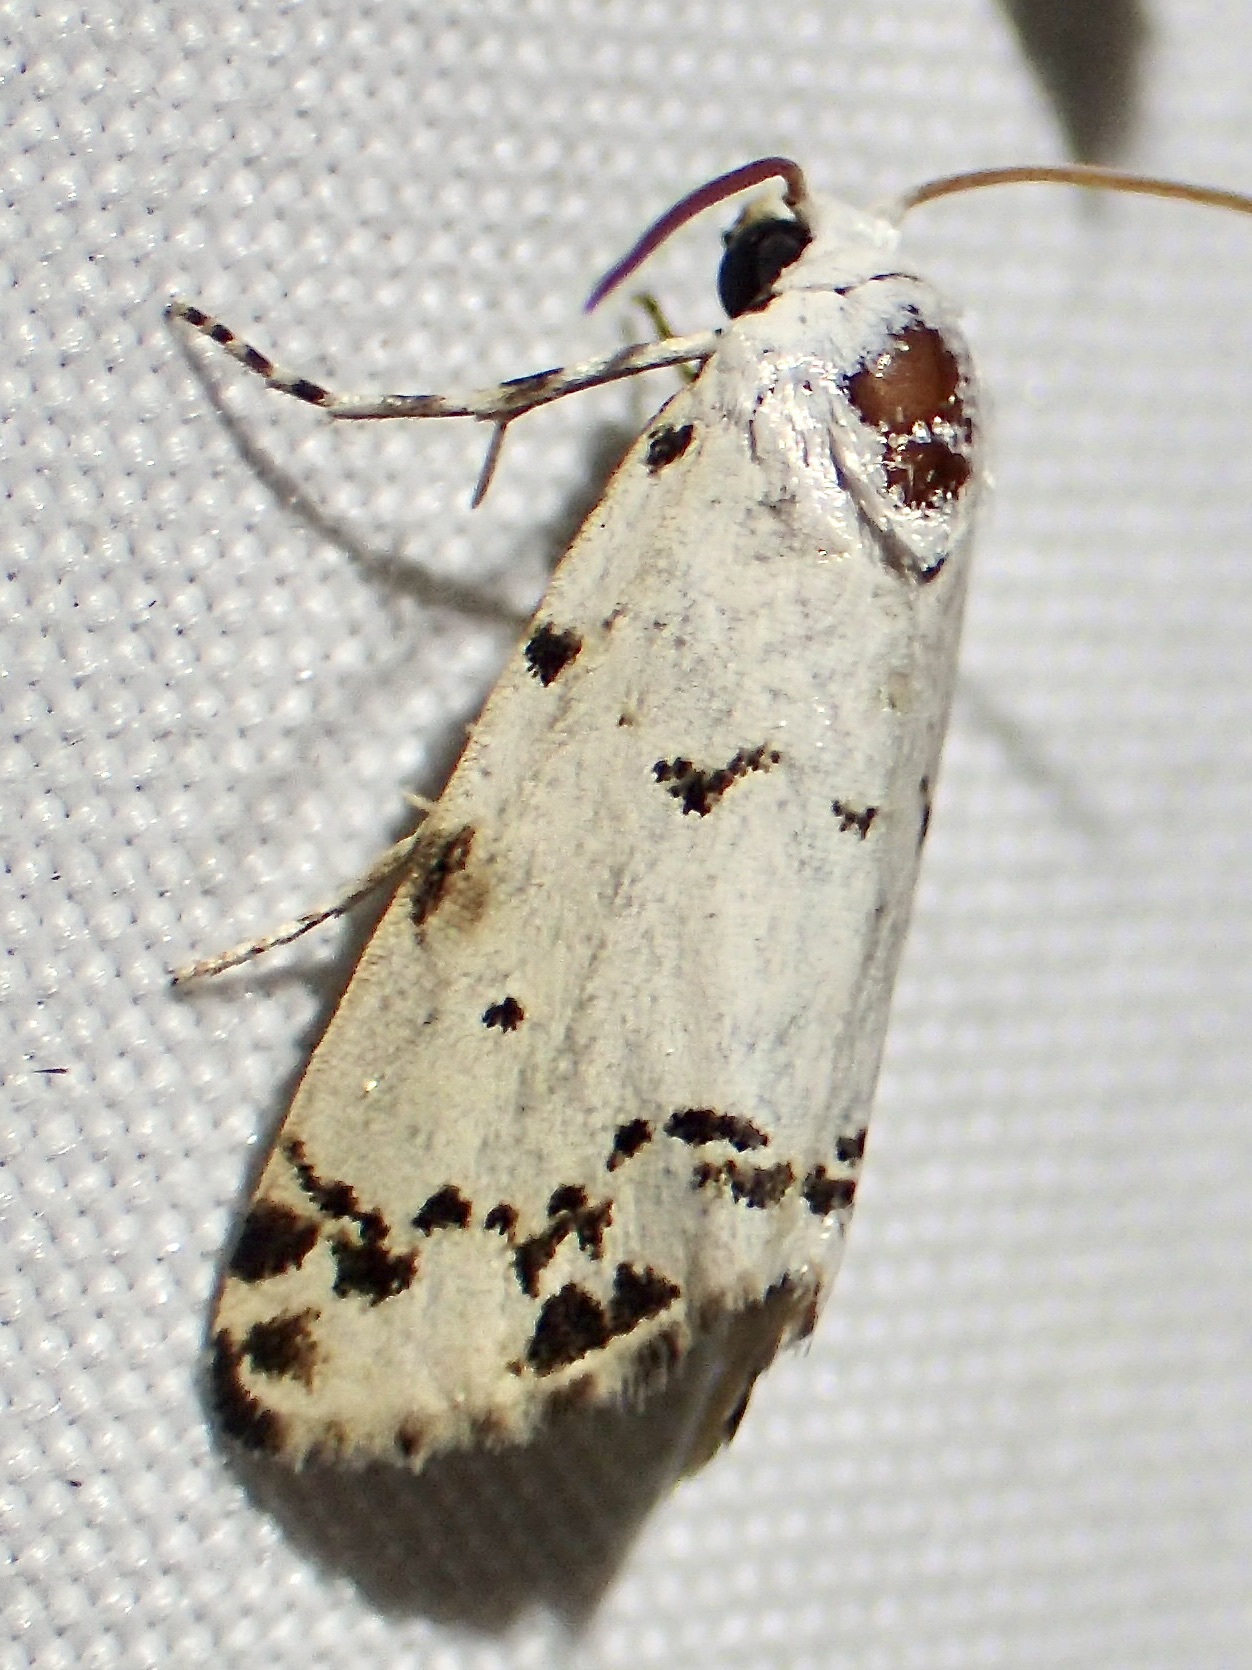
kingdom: Animalia
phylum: Arthropoda
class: Insecta
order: Lepidoptera
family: Noctuidae
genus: Grotella
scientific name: Grotella soror
